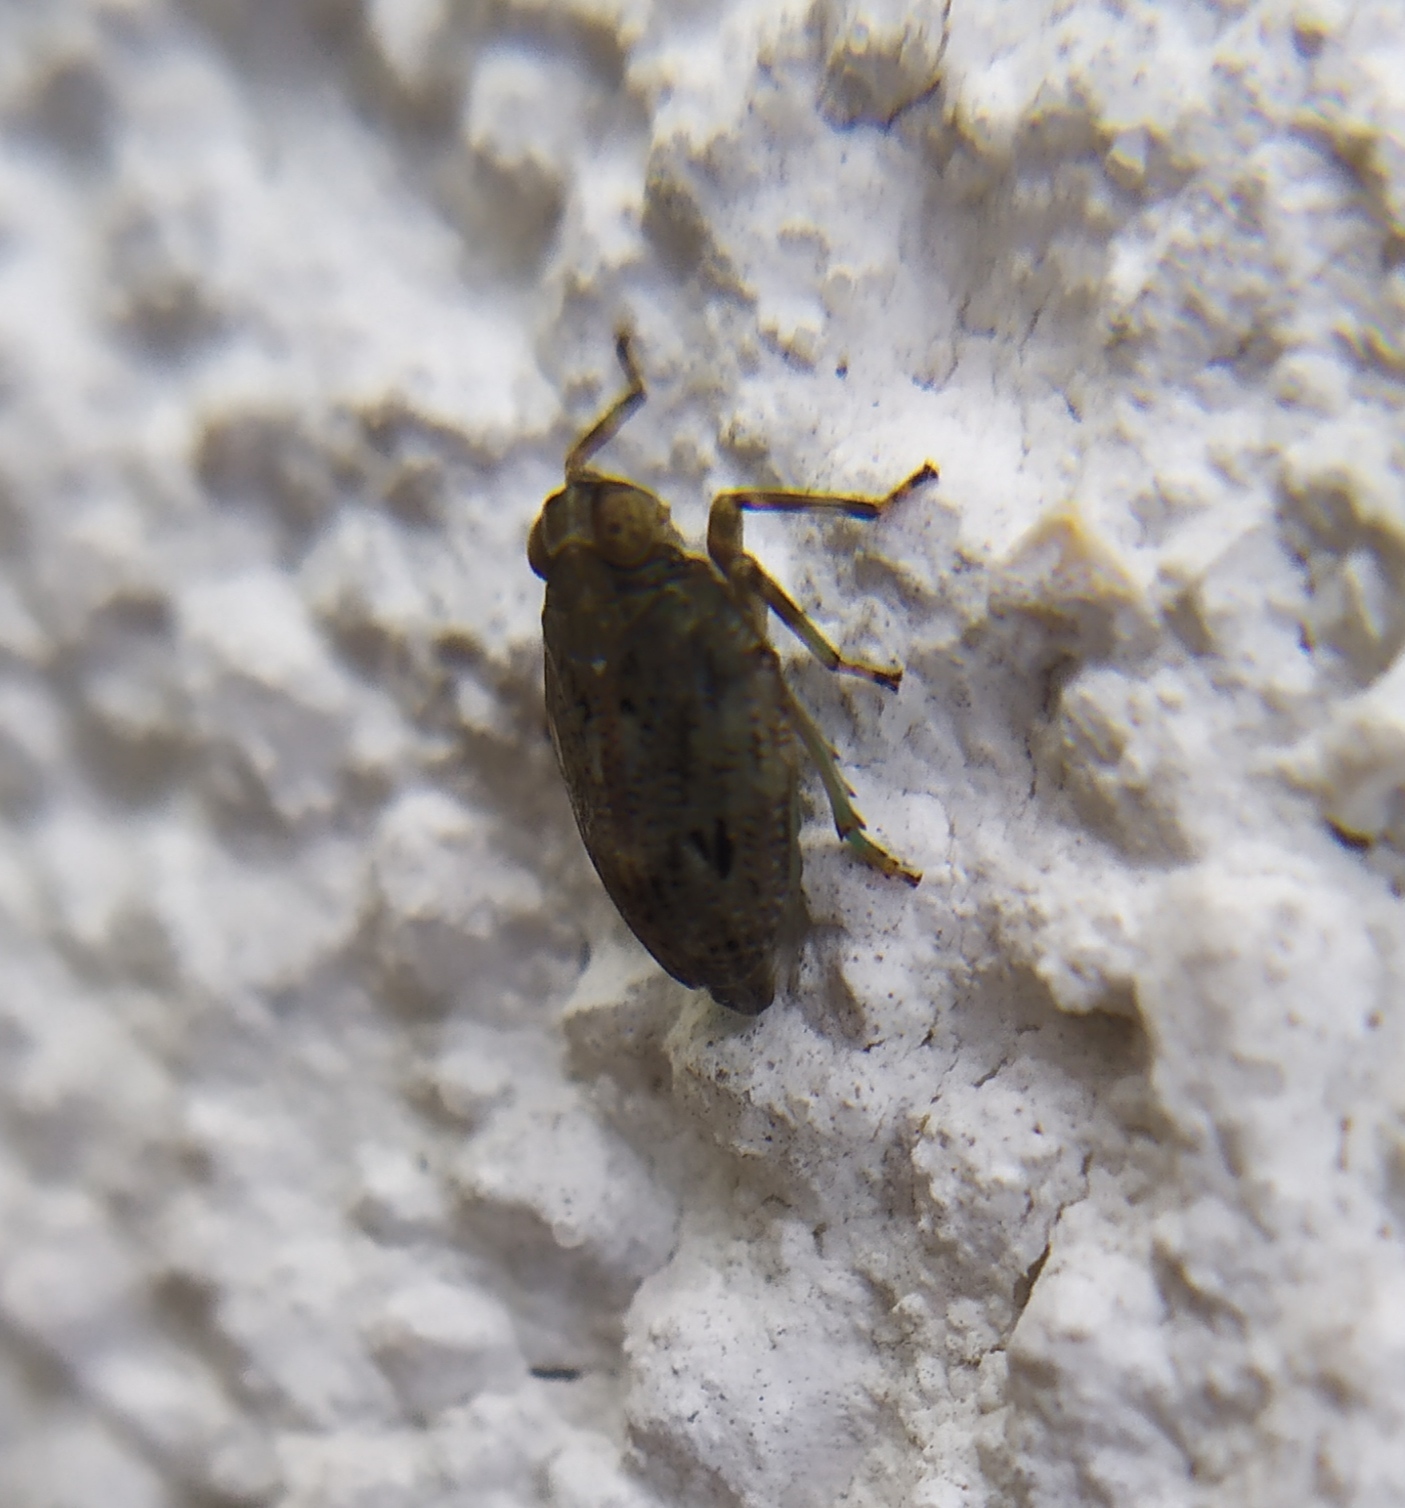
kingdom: Animalia
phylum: Arthropoda
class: Insecta
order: Hemiptera
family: Issidae
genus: Issus
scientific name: Issus coleoptratus
